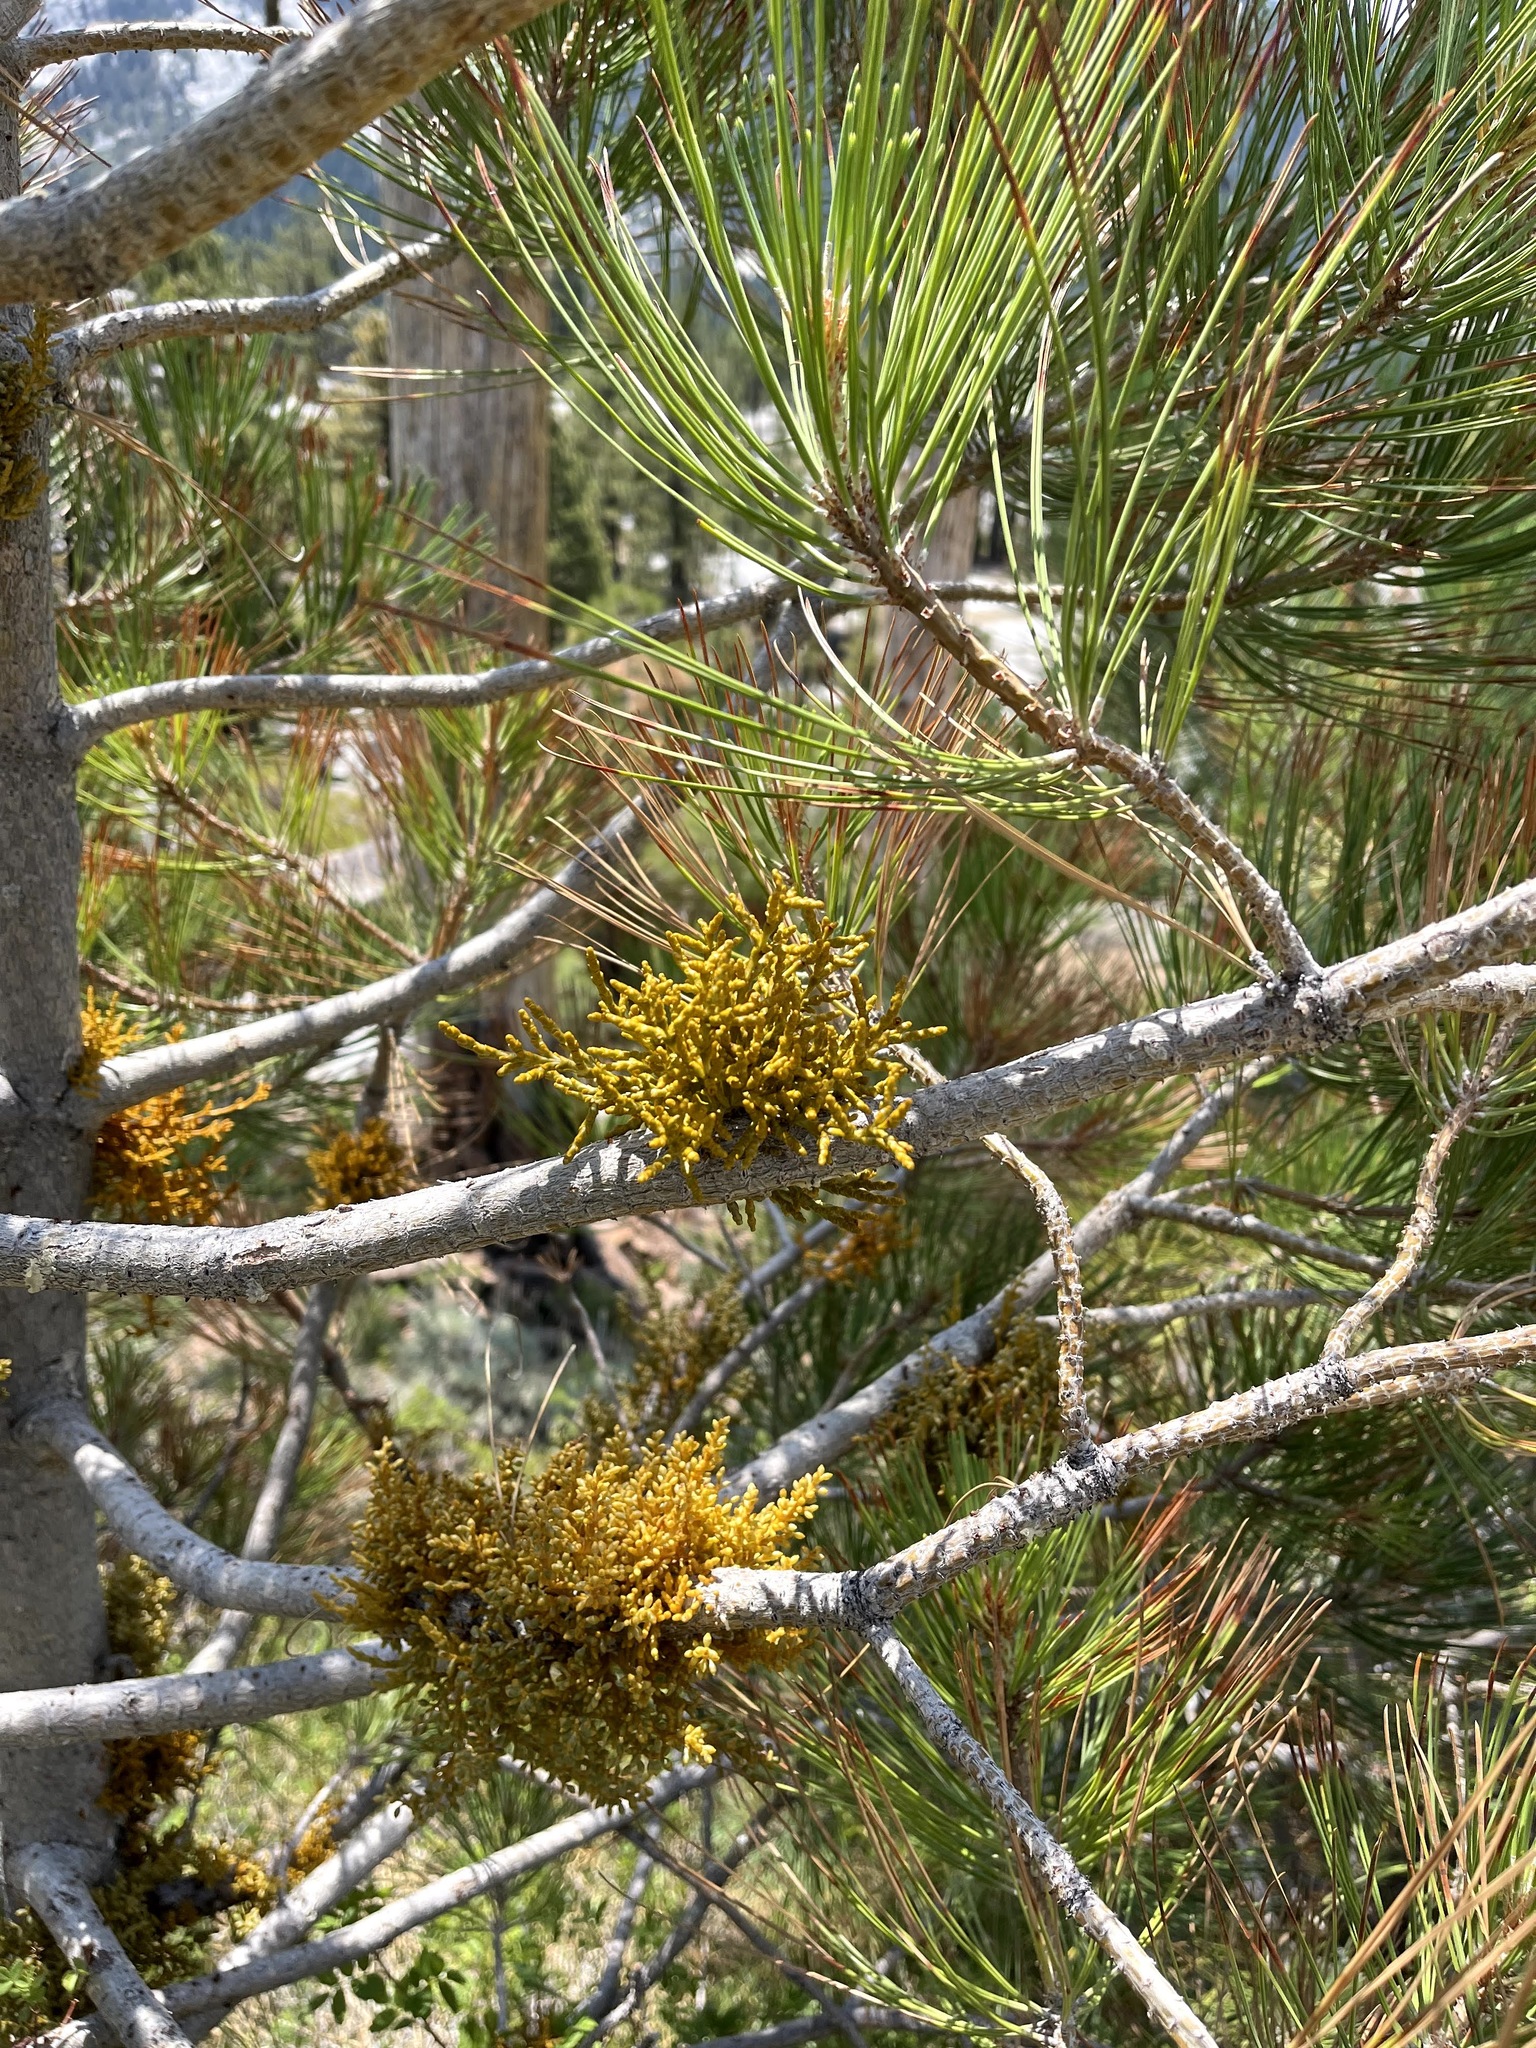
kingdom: Plantae
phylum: Tracheophyta
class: Magnoliopsida
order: Santalales
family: Viscaceae
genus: Arceuthobium
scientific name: Arceuthobium campylopodum
